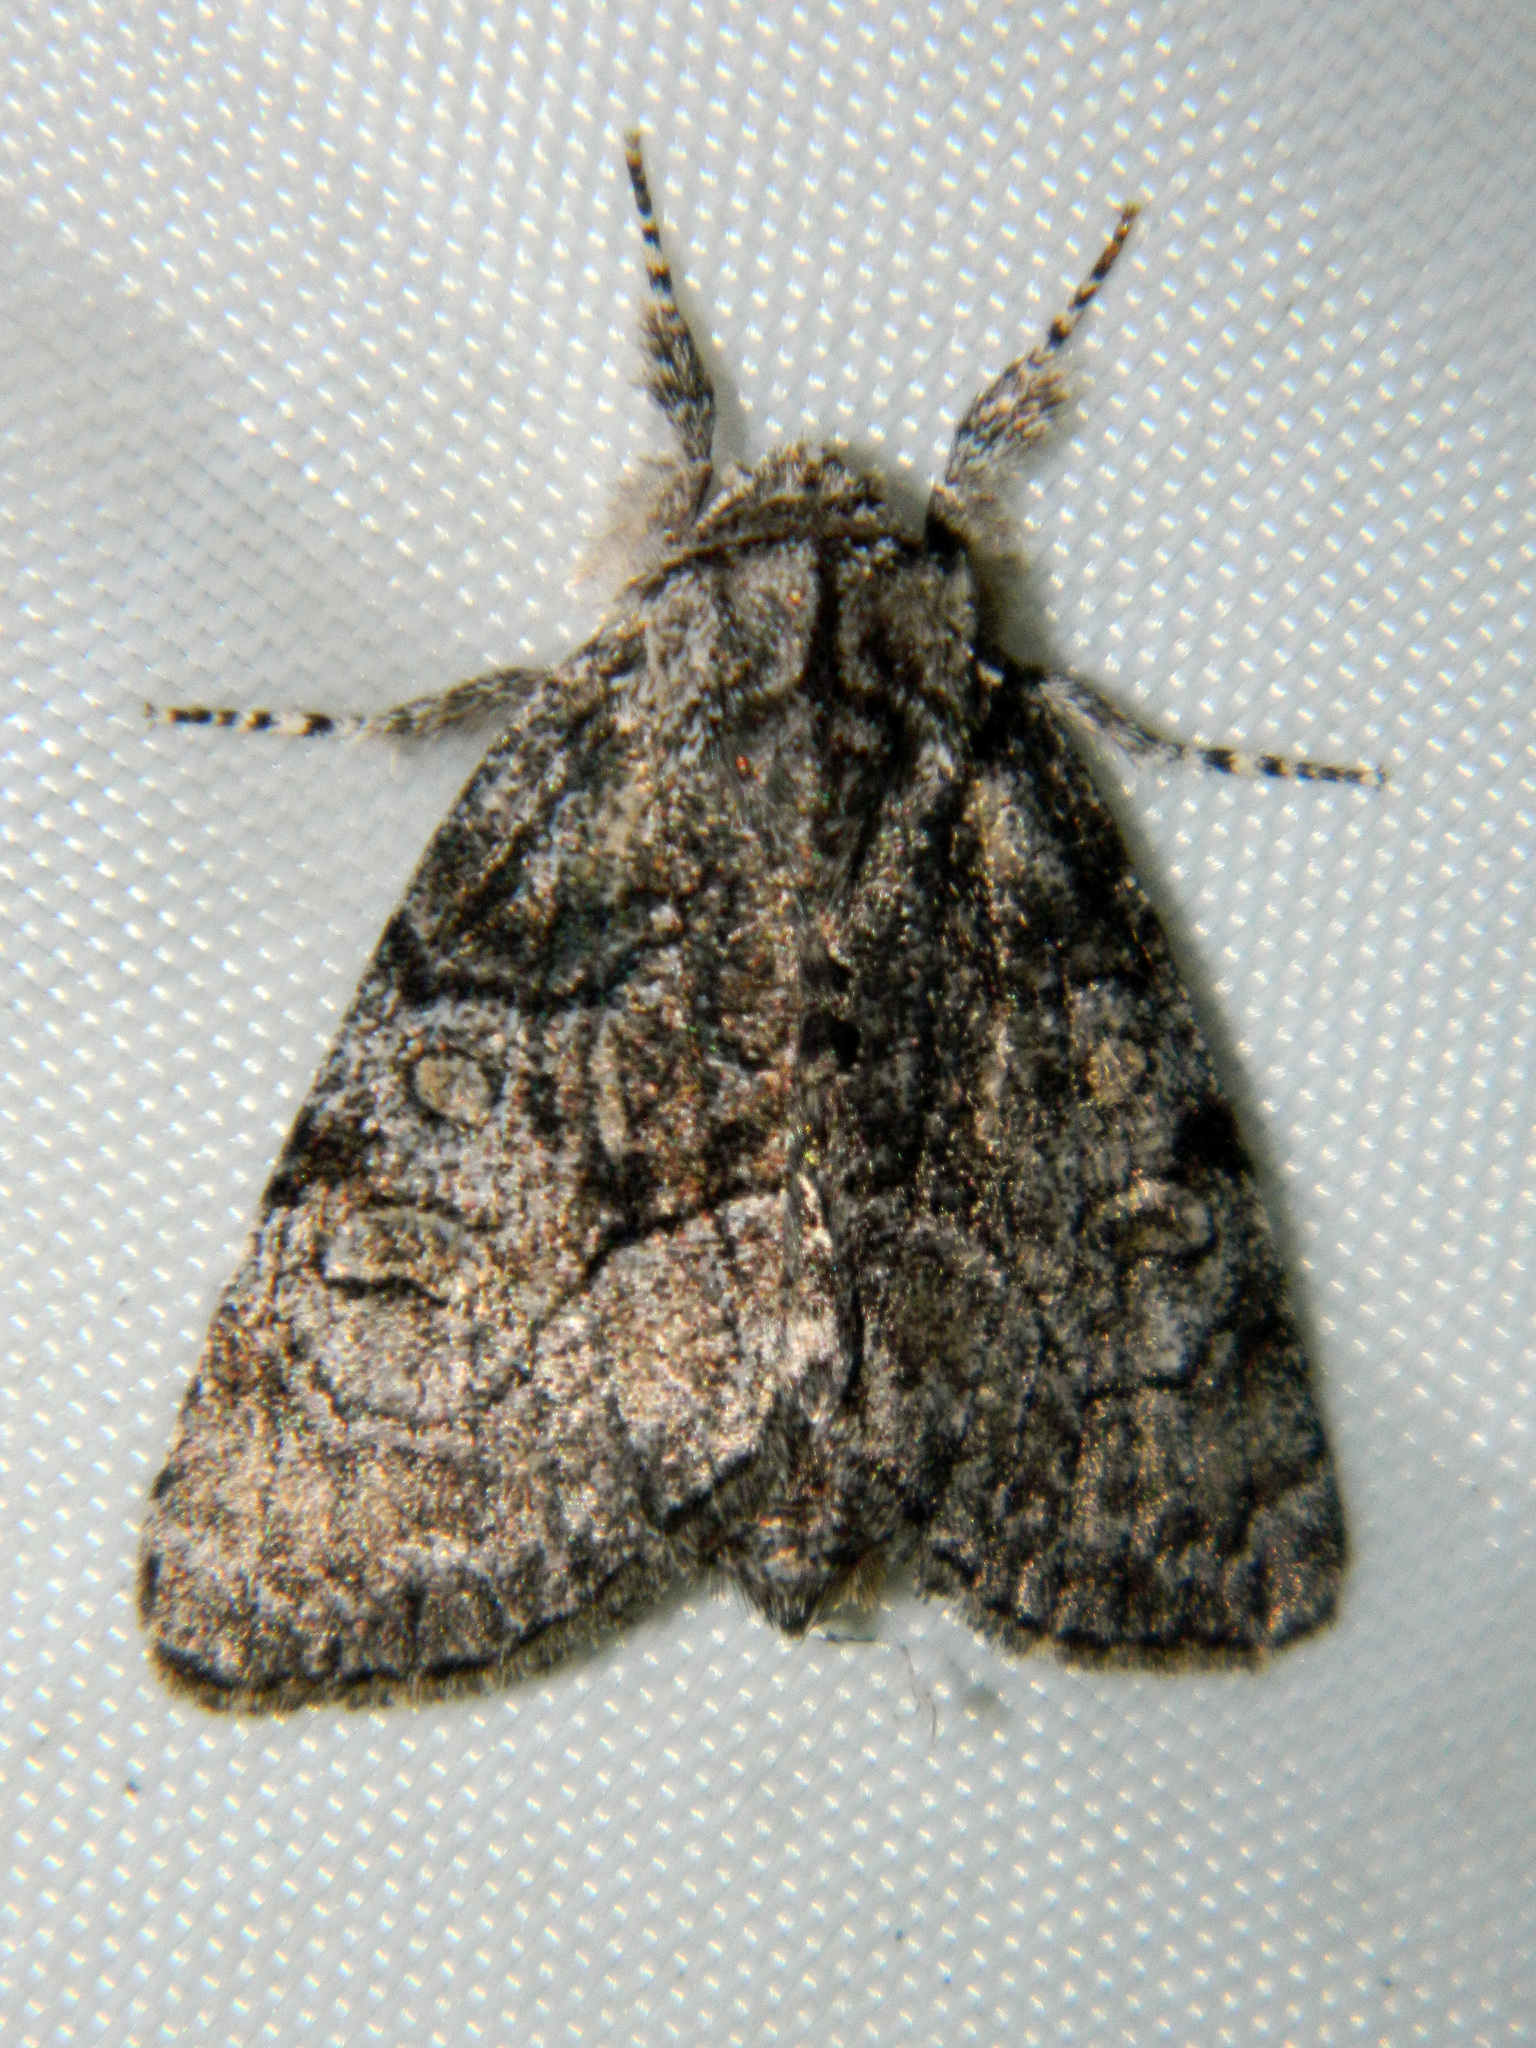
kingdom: Animalia
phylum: Arthropoda
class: Insecta
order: Lepidoptera
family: Noctuidae
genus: Raphia
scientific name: Raphia frater
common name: Brother
